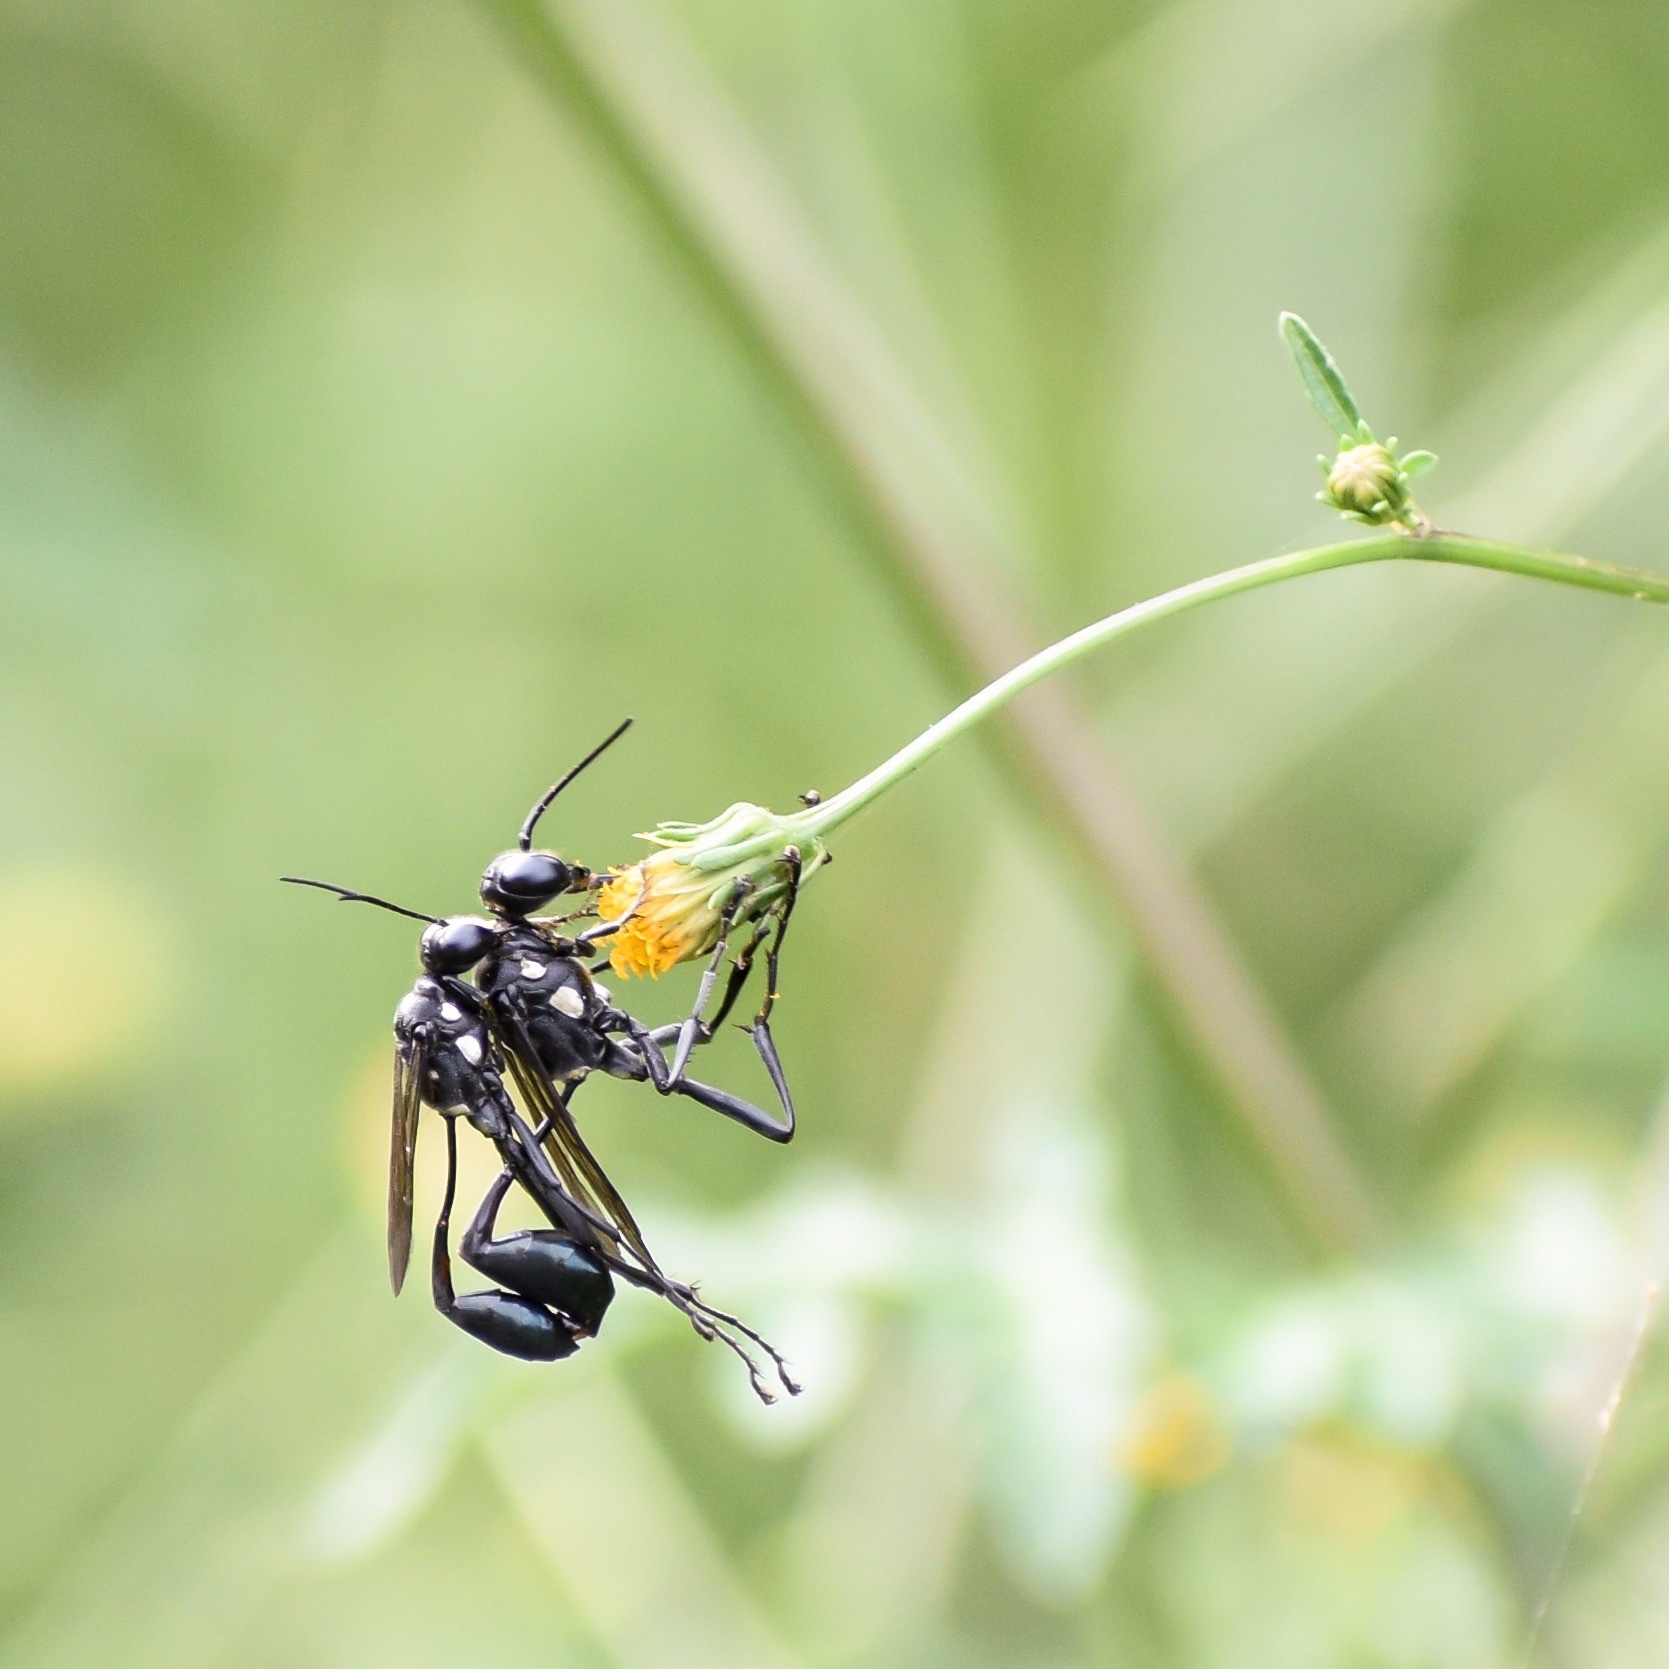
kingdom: Animalia
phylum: Arthropoda
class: Insecta
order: Hymenoptera
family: Sphecidae
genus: Eremnophila
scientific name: Eremnophila aureonotata
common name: Gold-marked thread-waisted wasp
